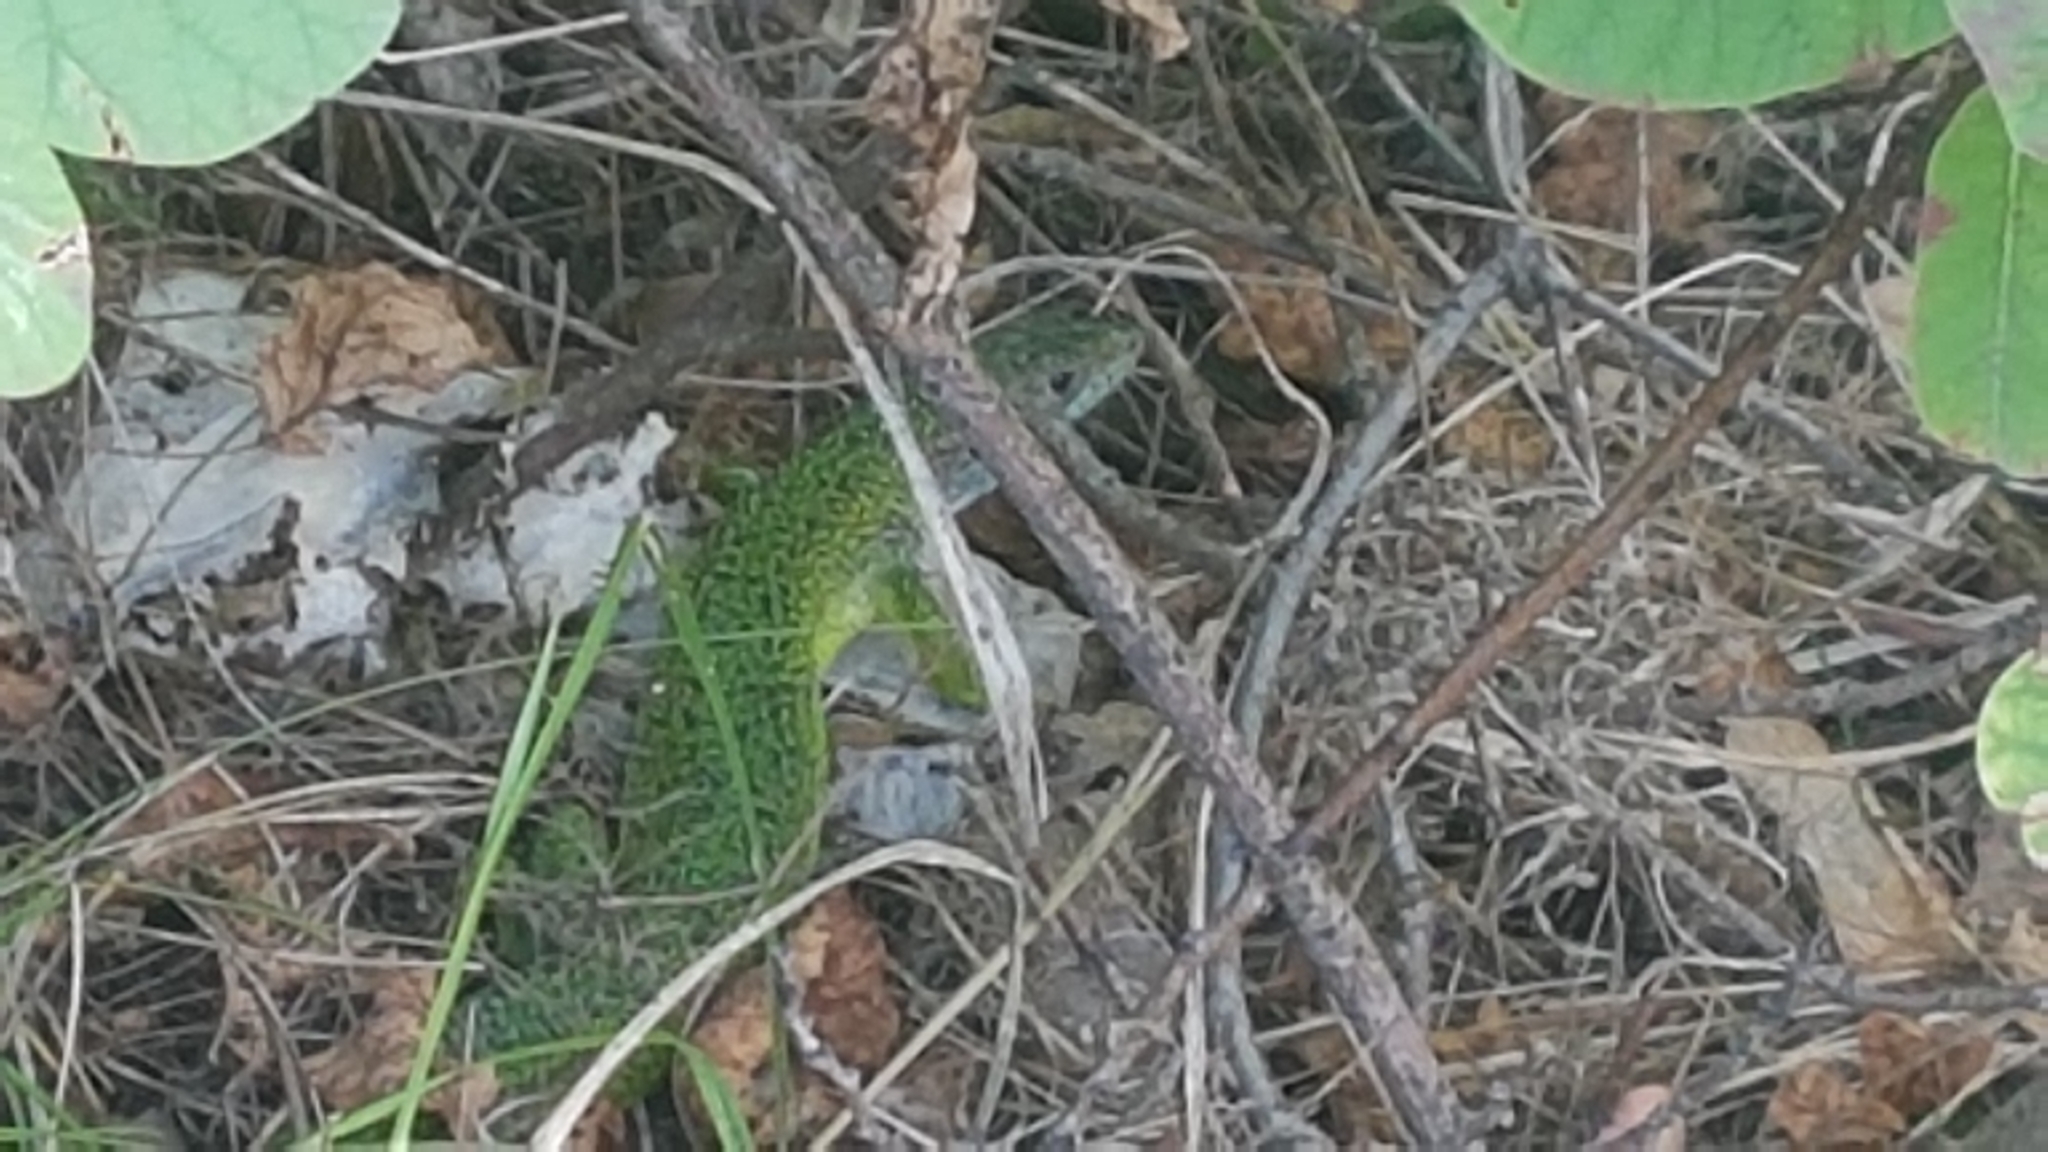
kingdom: Animalia
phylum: Chordata
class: Squamata
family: Lacertidae
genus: Lacerta
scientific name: Lacerta bilineata
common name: Western green lizard
